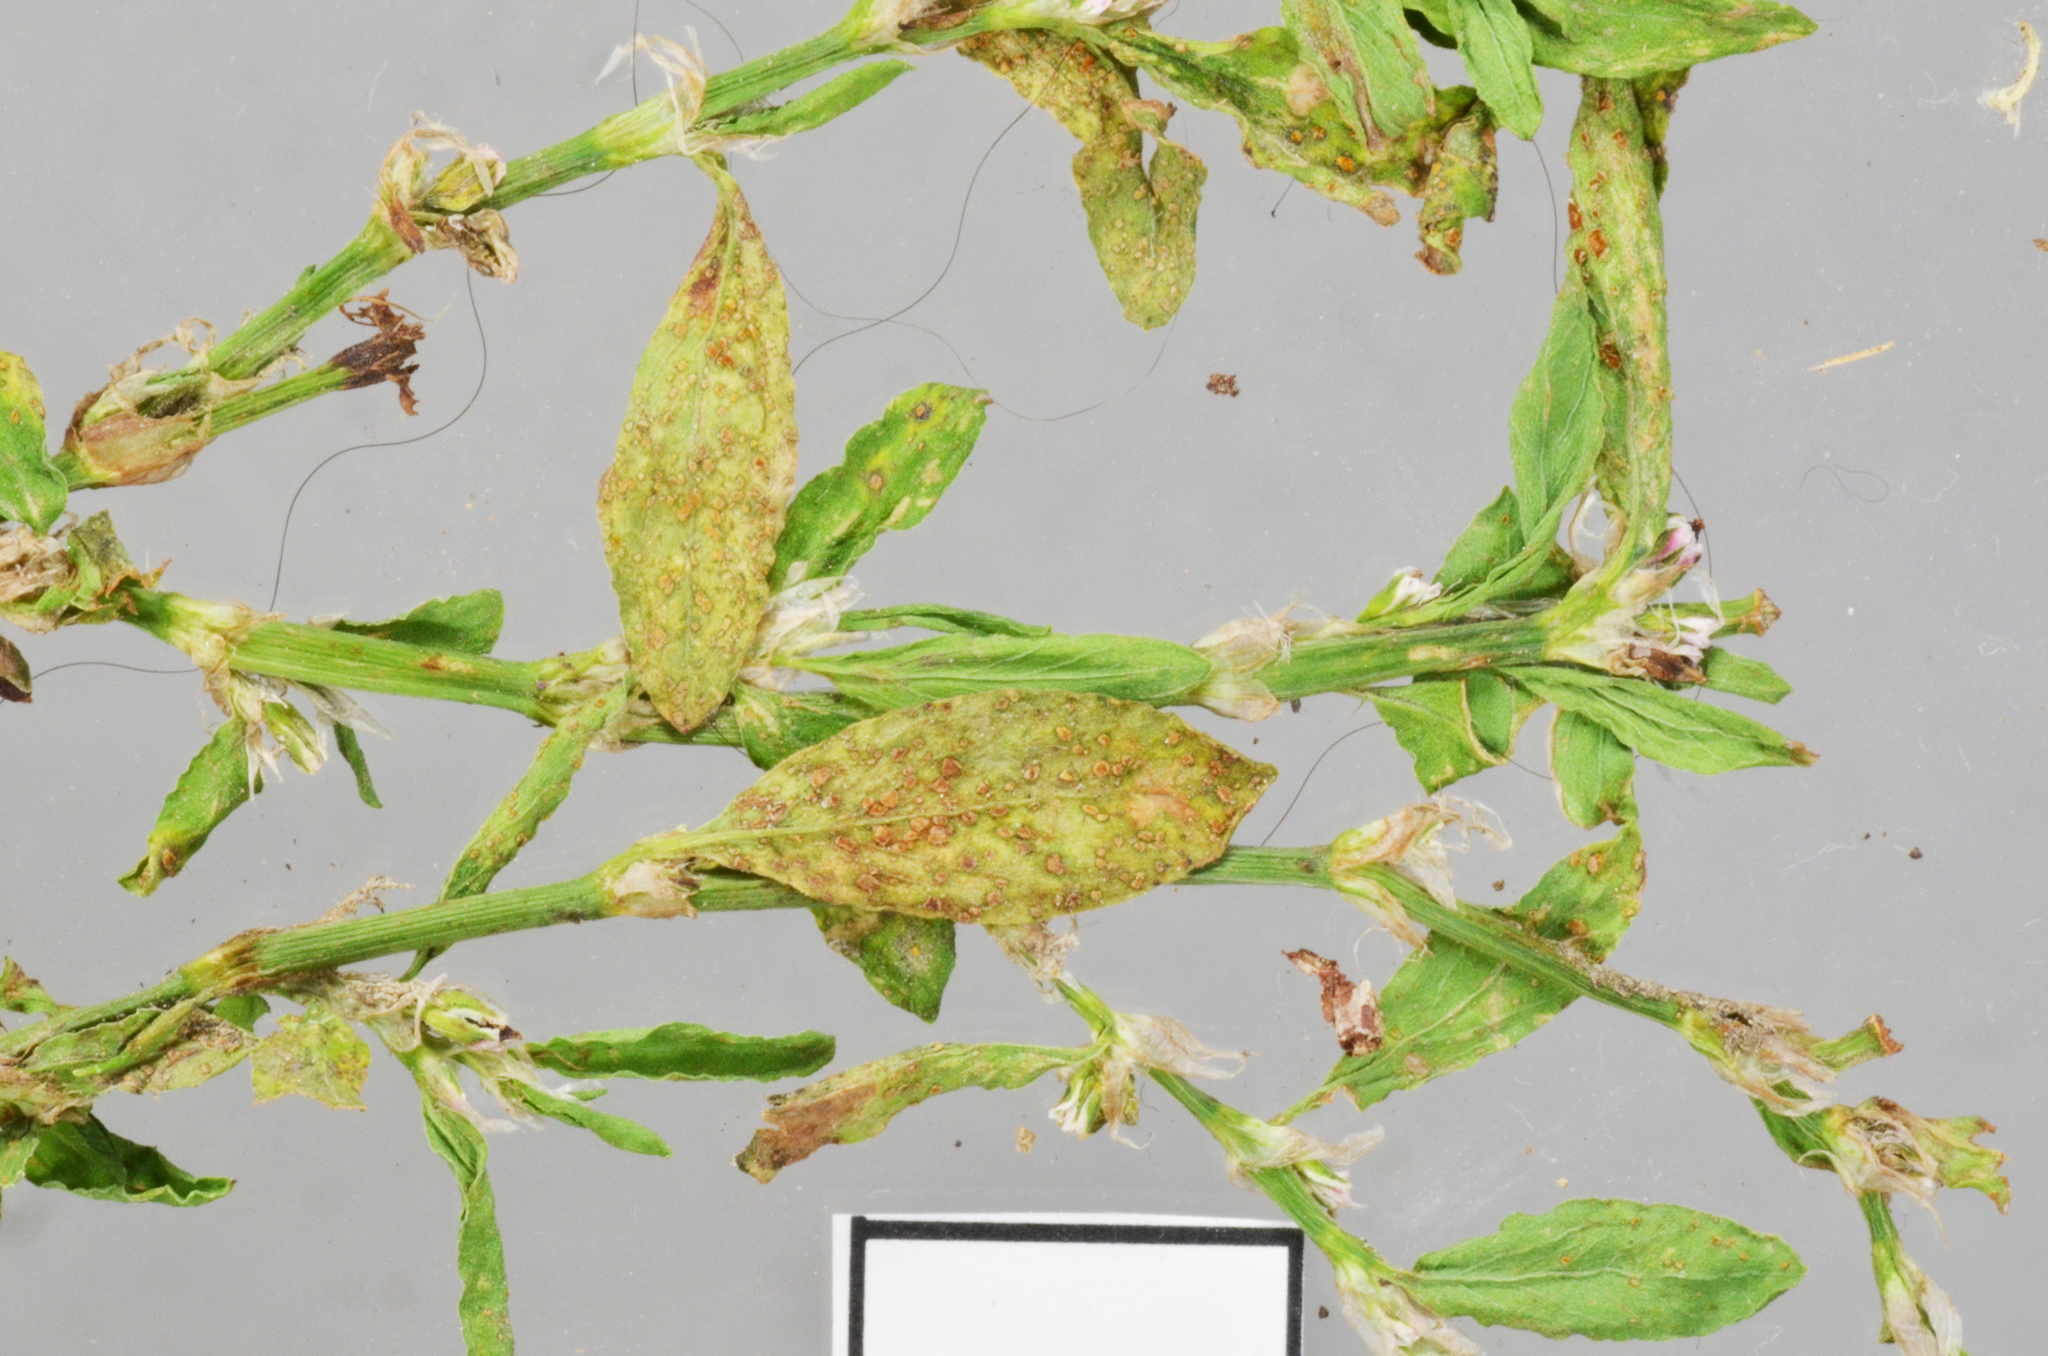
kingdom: Fungi
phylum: Basidiomycota
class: Pucciniomycetes
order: Pucciniales
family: Pucciniaceae
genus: Uromyces
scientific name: Uromyces polygoni-avicularis
